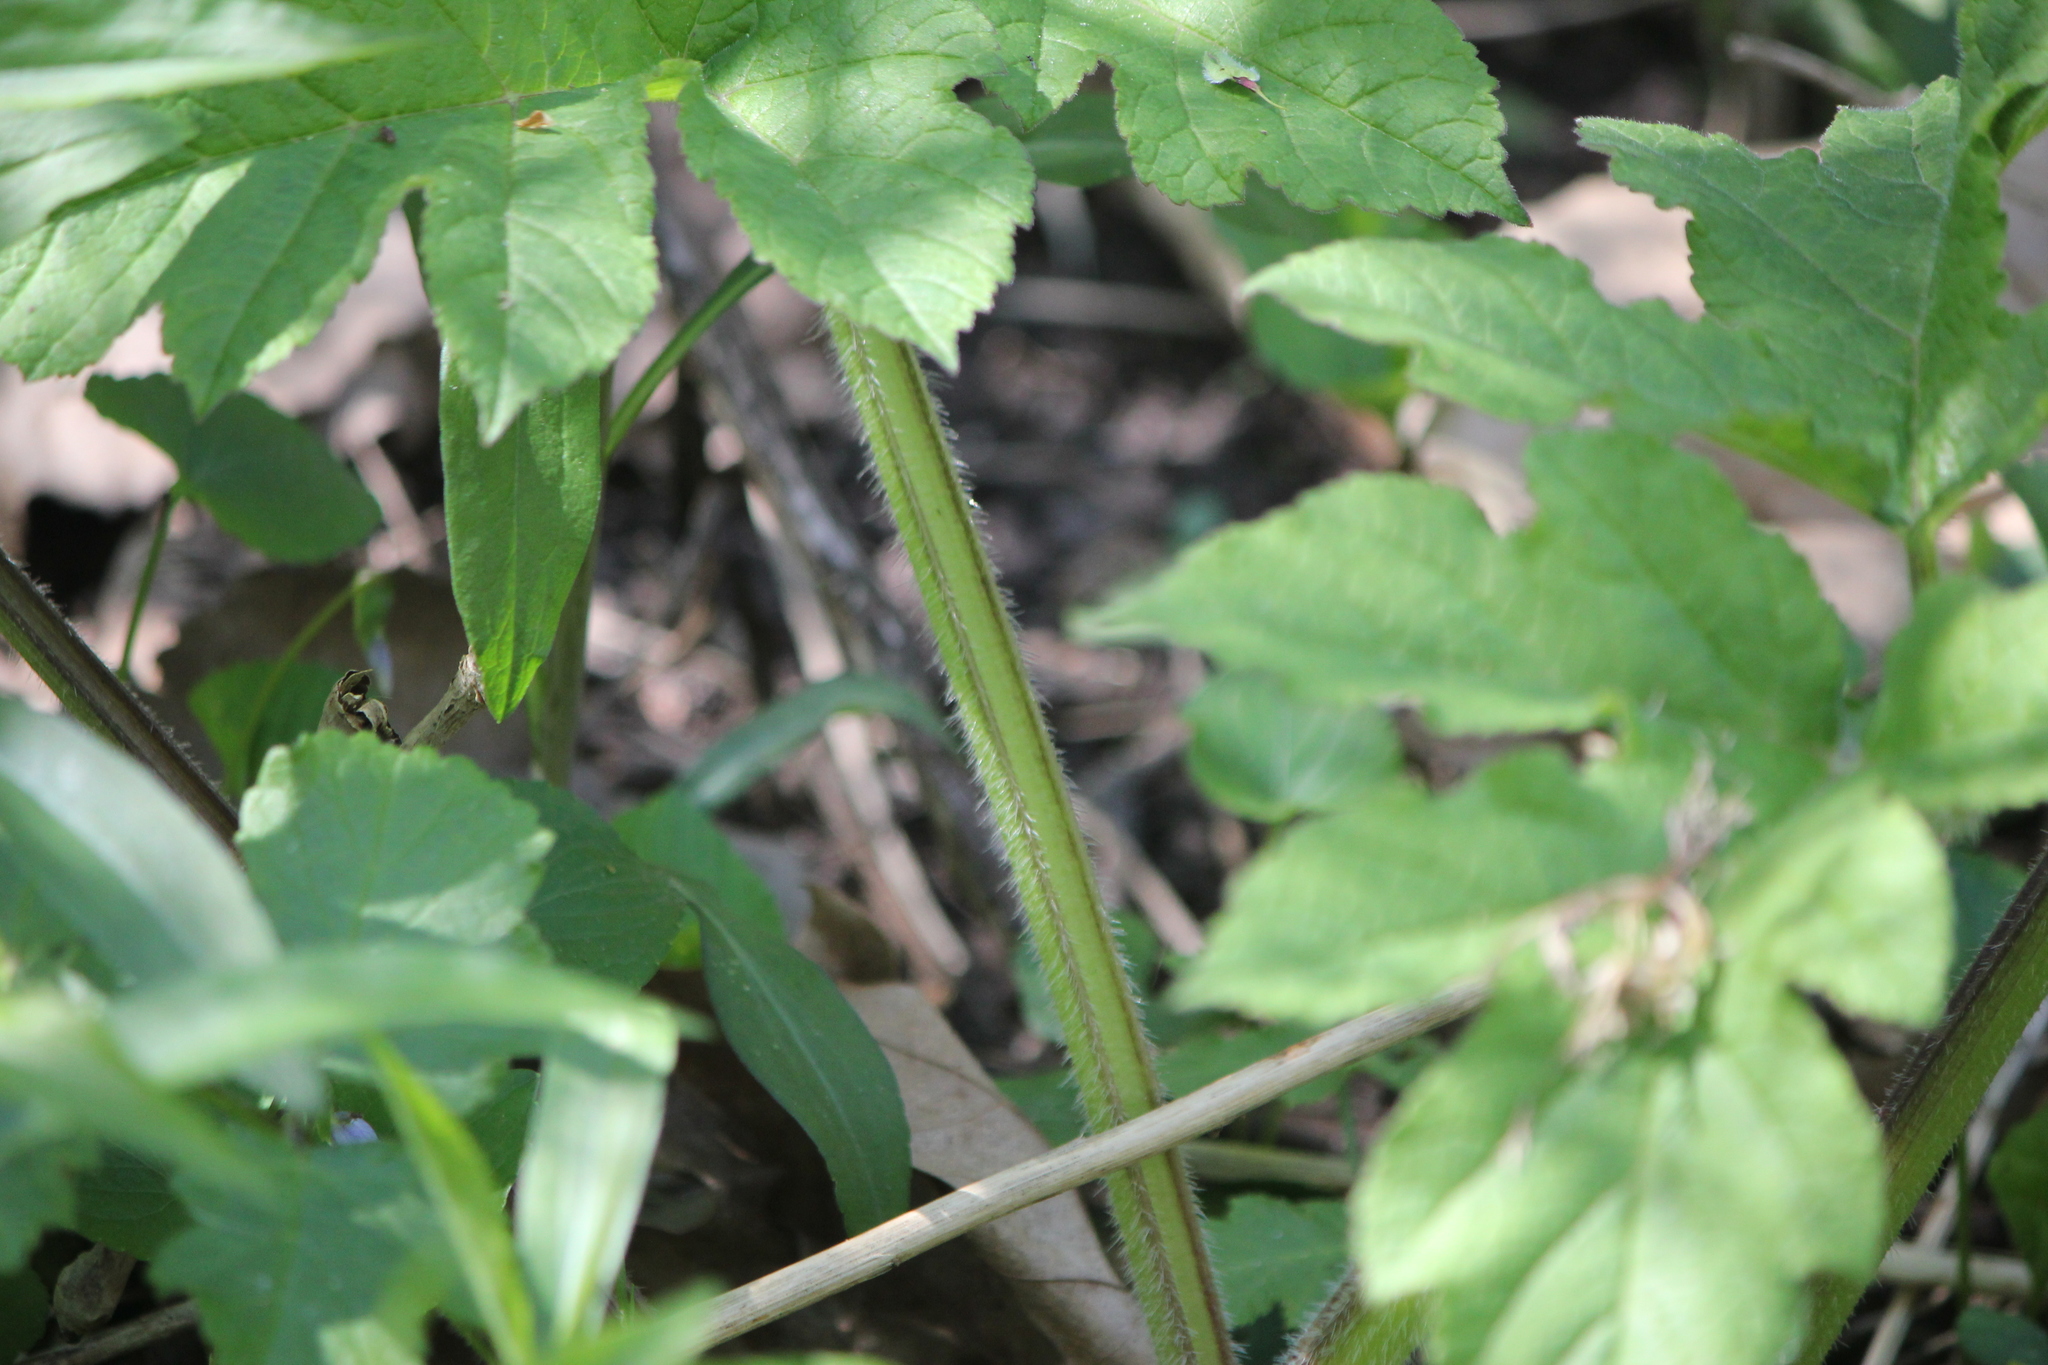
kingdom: Plantae
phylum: Tracheophyta
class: Magnoliopsida
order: Apiales
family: Apiaceae
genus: Heracleum
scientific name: Heracleum maximum
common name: American cow parsnip
